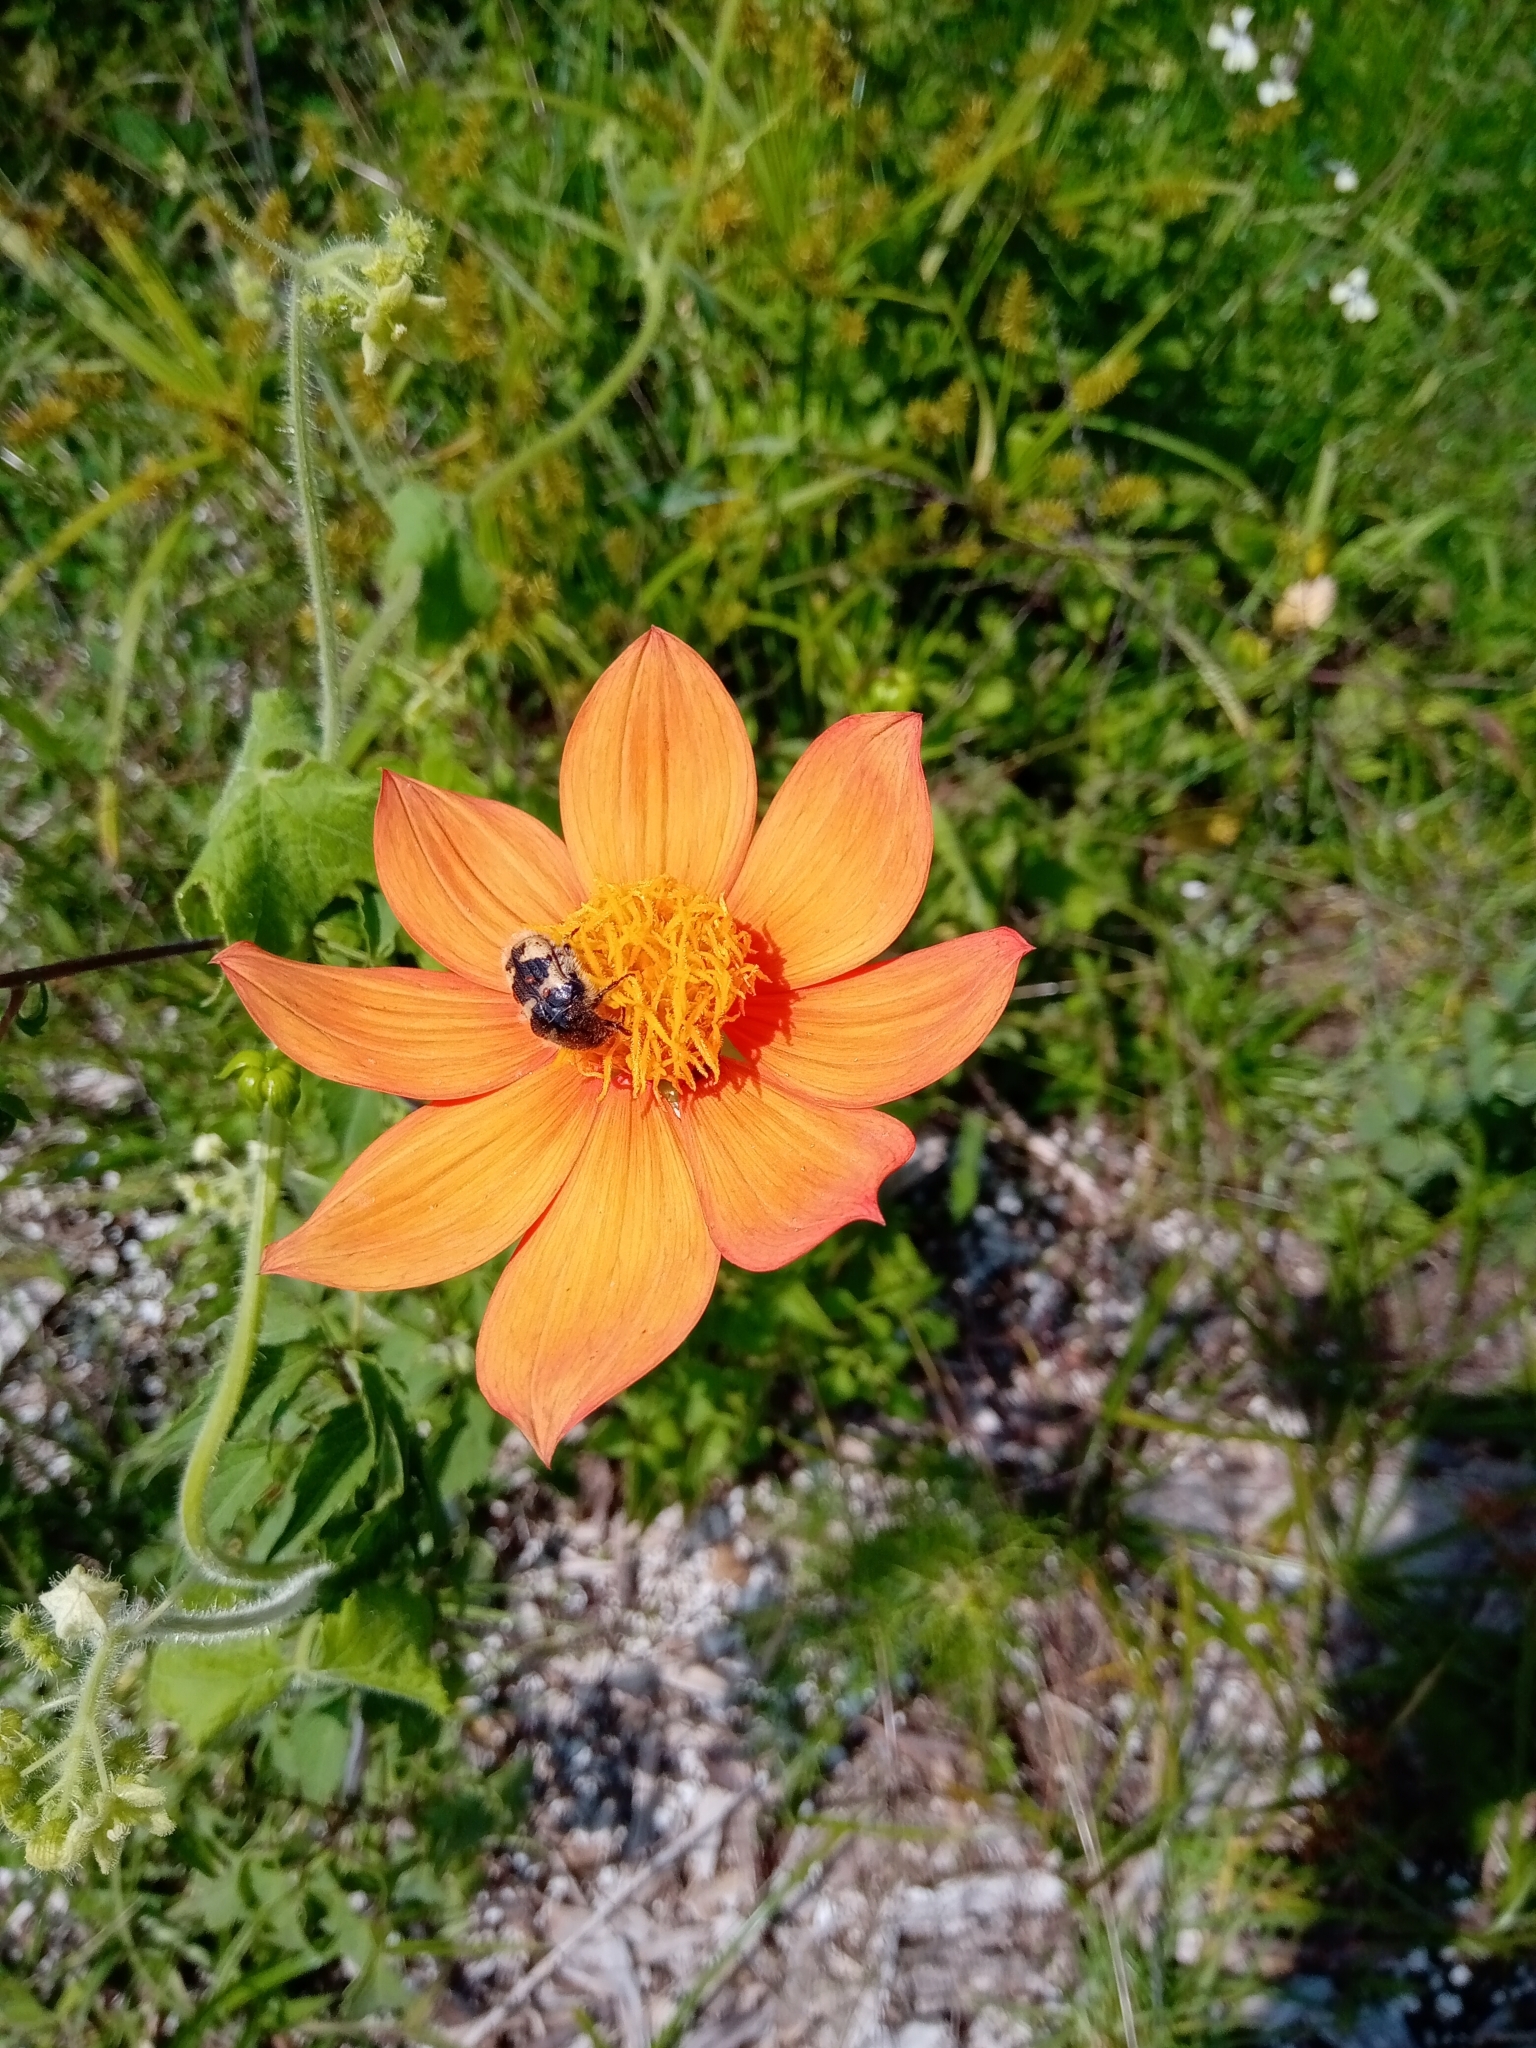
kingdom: Plantae
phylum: Tracheophyta
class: Magnoliopsida
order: Asterales
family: Asteraceae
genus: Dahlia
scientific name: Dahlia coccinea
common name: Red dahlia
